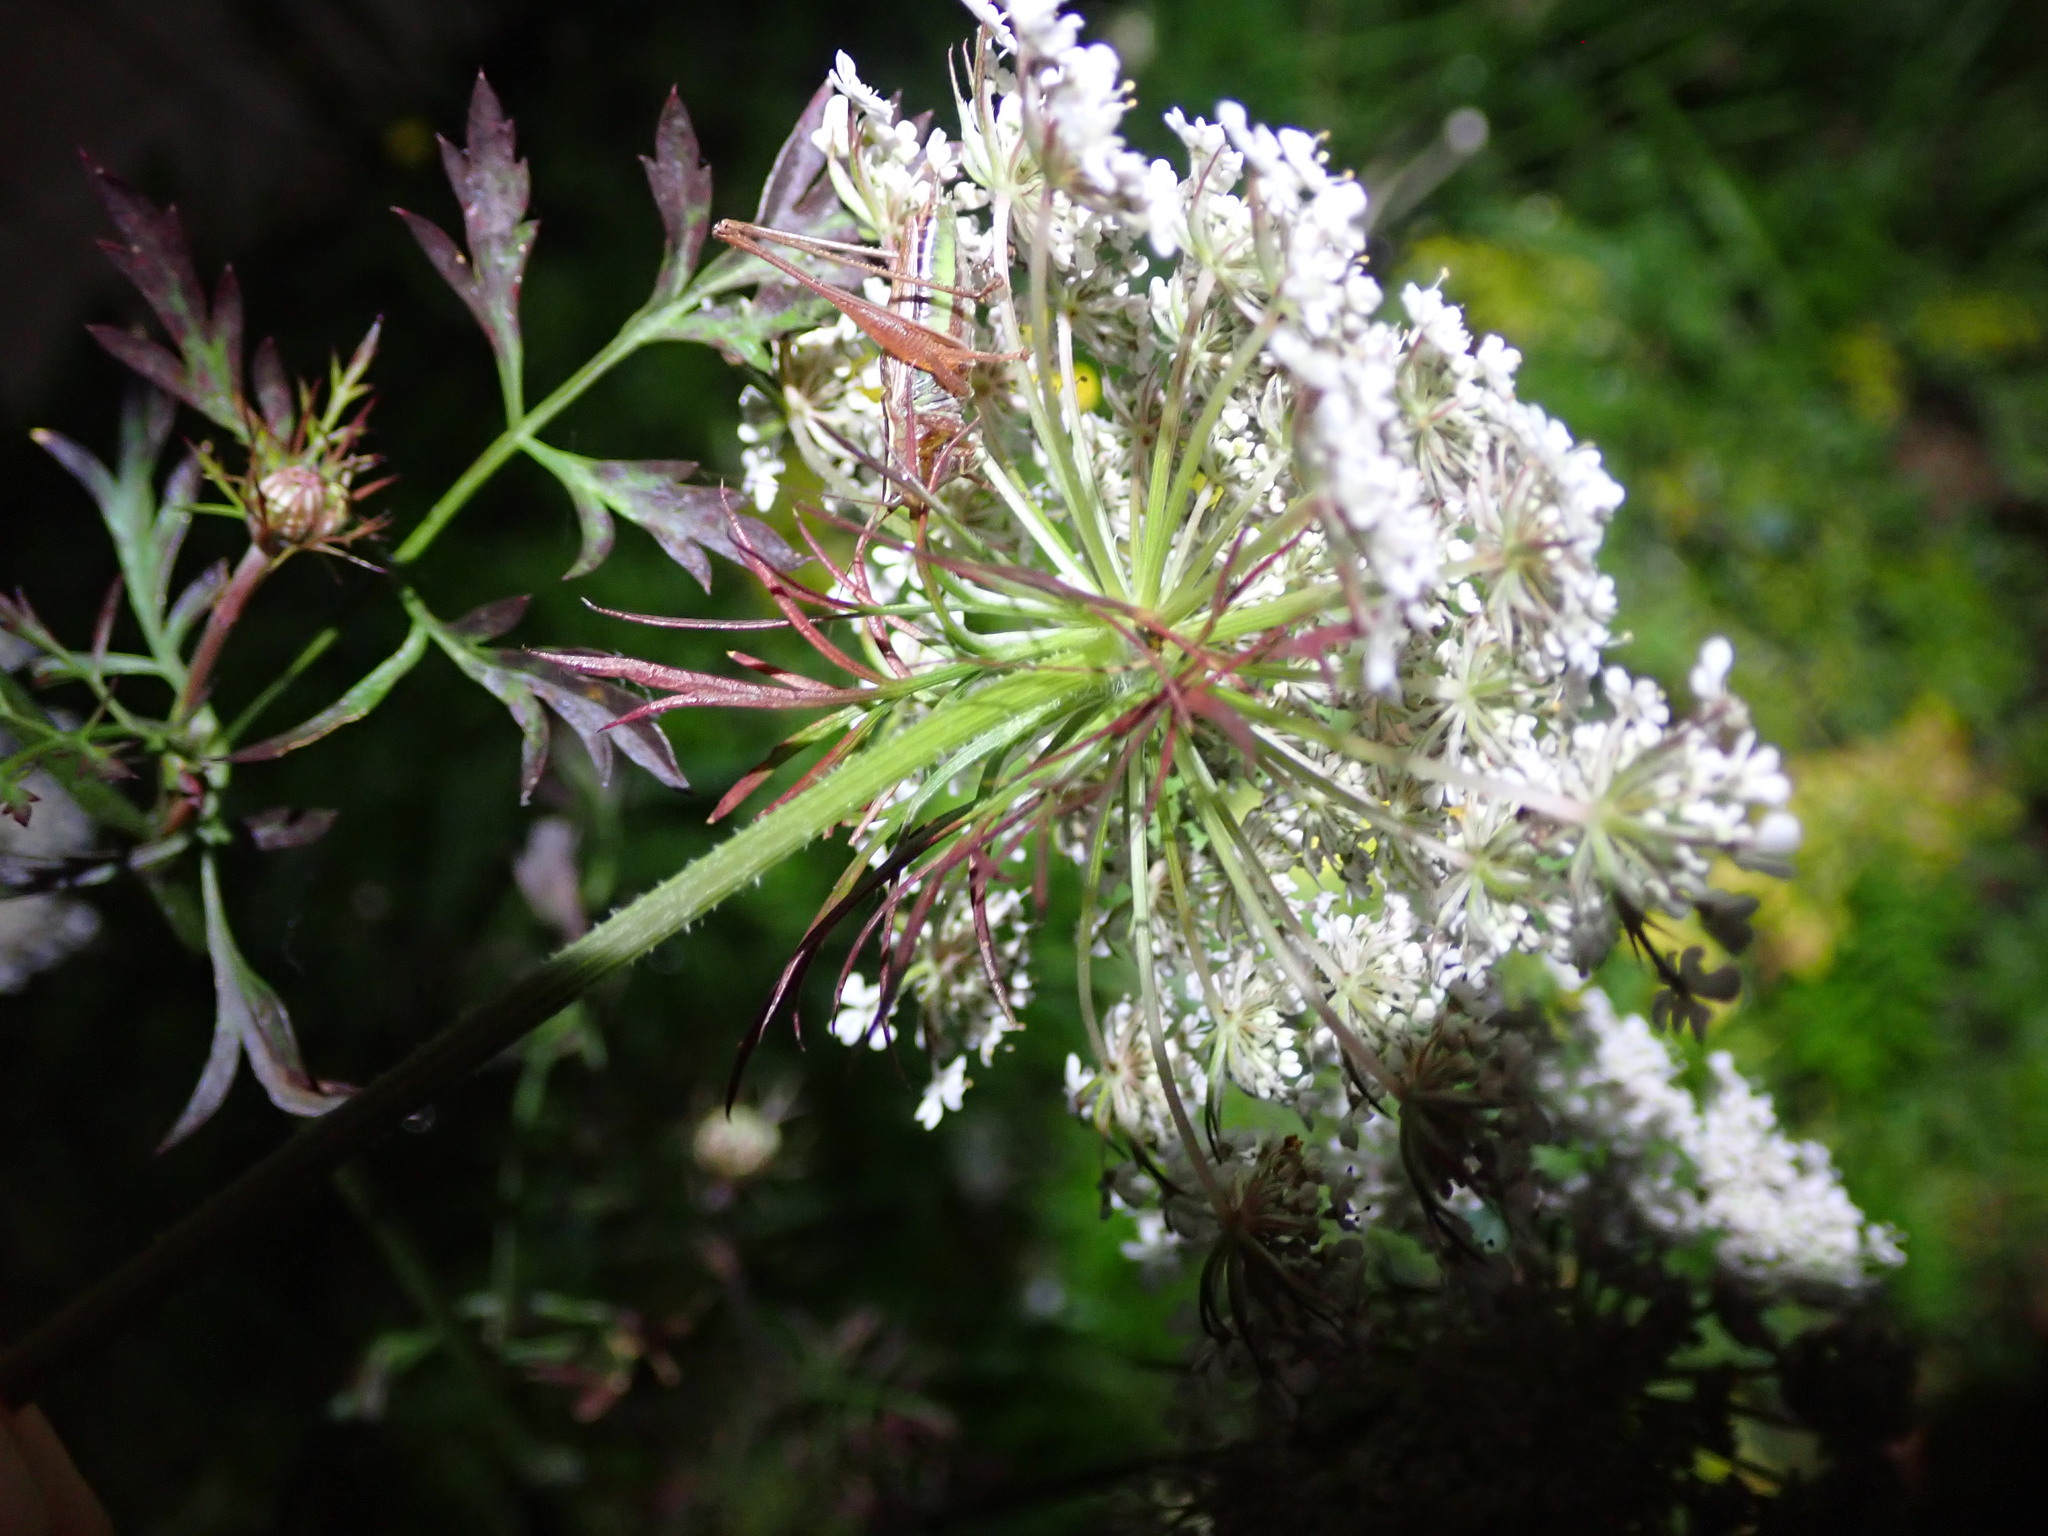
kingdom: Plantae
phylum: Tracheophyta
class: Magnoliopsida
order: Apiales
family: Apiaceae
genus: Daucus
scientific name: Daucus carota
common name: Wild carrot
